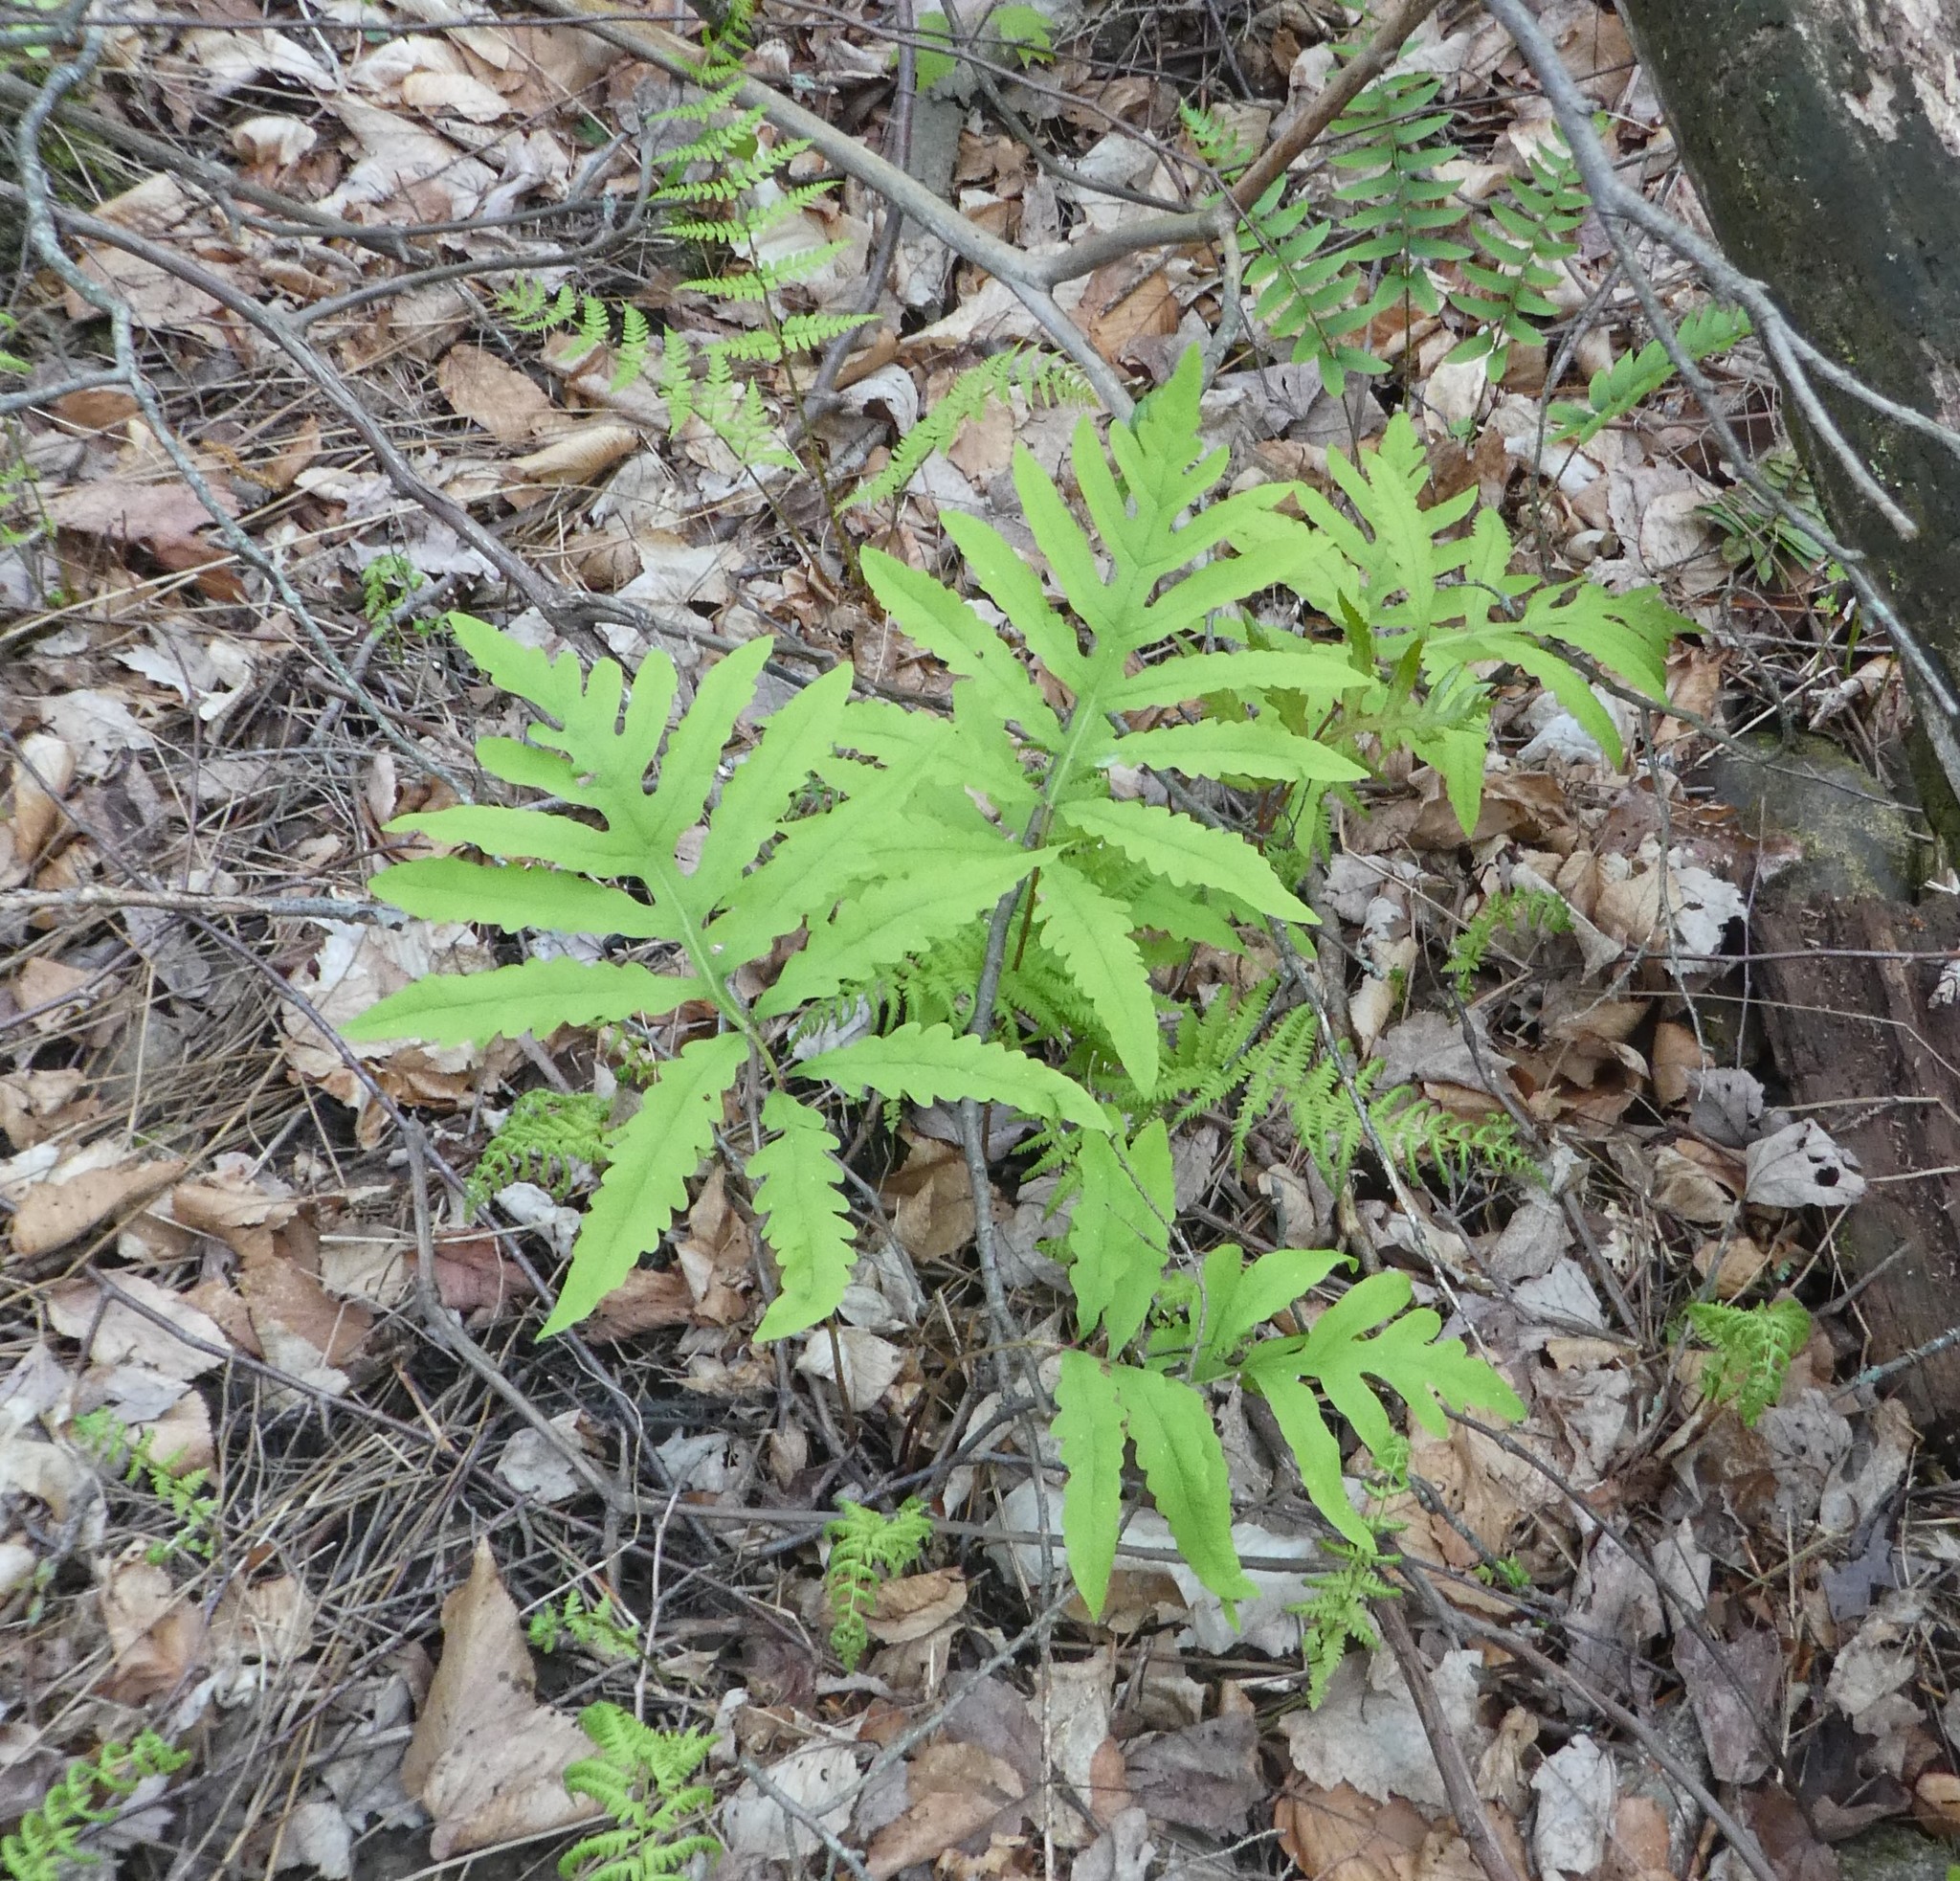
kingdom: Plantae
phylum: Tracheophyta
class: Polypodiopsida
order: Polypodiales
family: Onocleaceae
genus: Onoclea
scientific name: Onoclea sensibilis
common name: Sensitive fern
